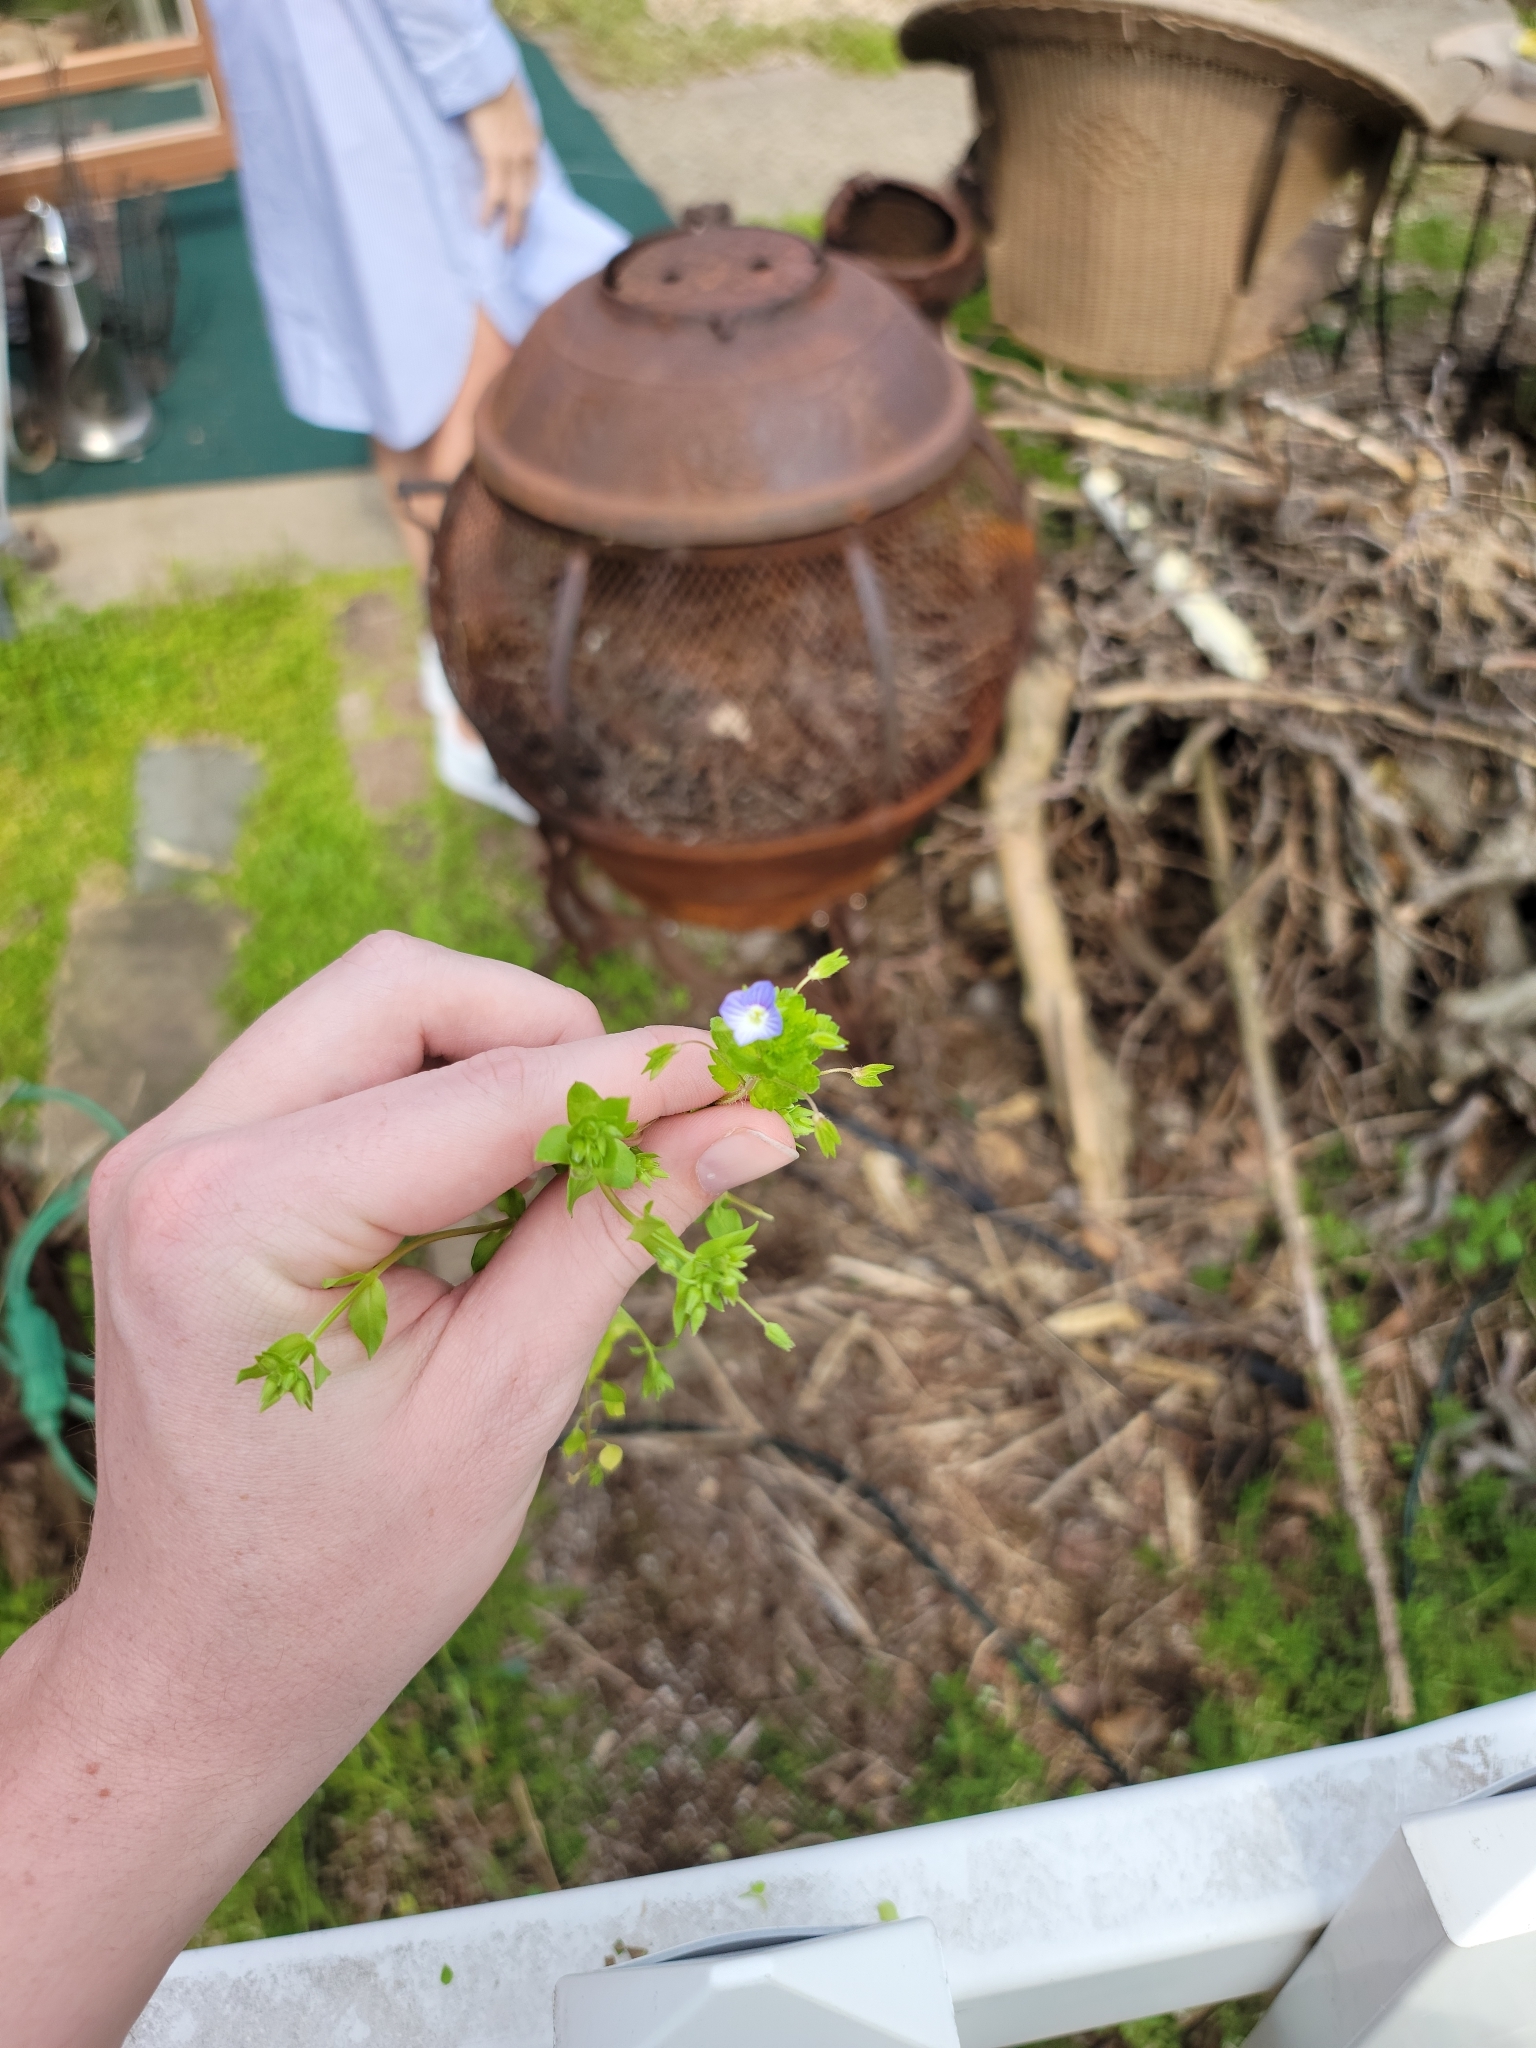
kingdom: Plantae
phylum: Tracheophyta
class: Magnoliopsida
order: Lamiales
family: Plantaginaceae
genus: Veronica
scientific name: Veronica persica
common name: Common field-speedwell
